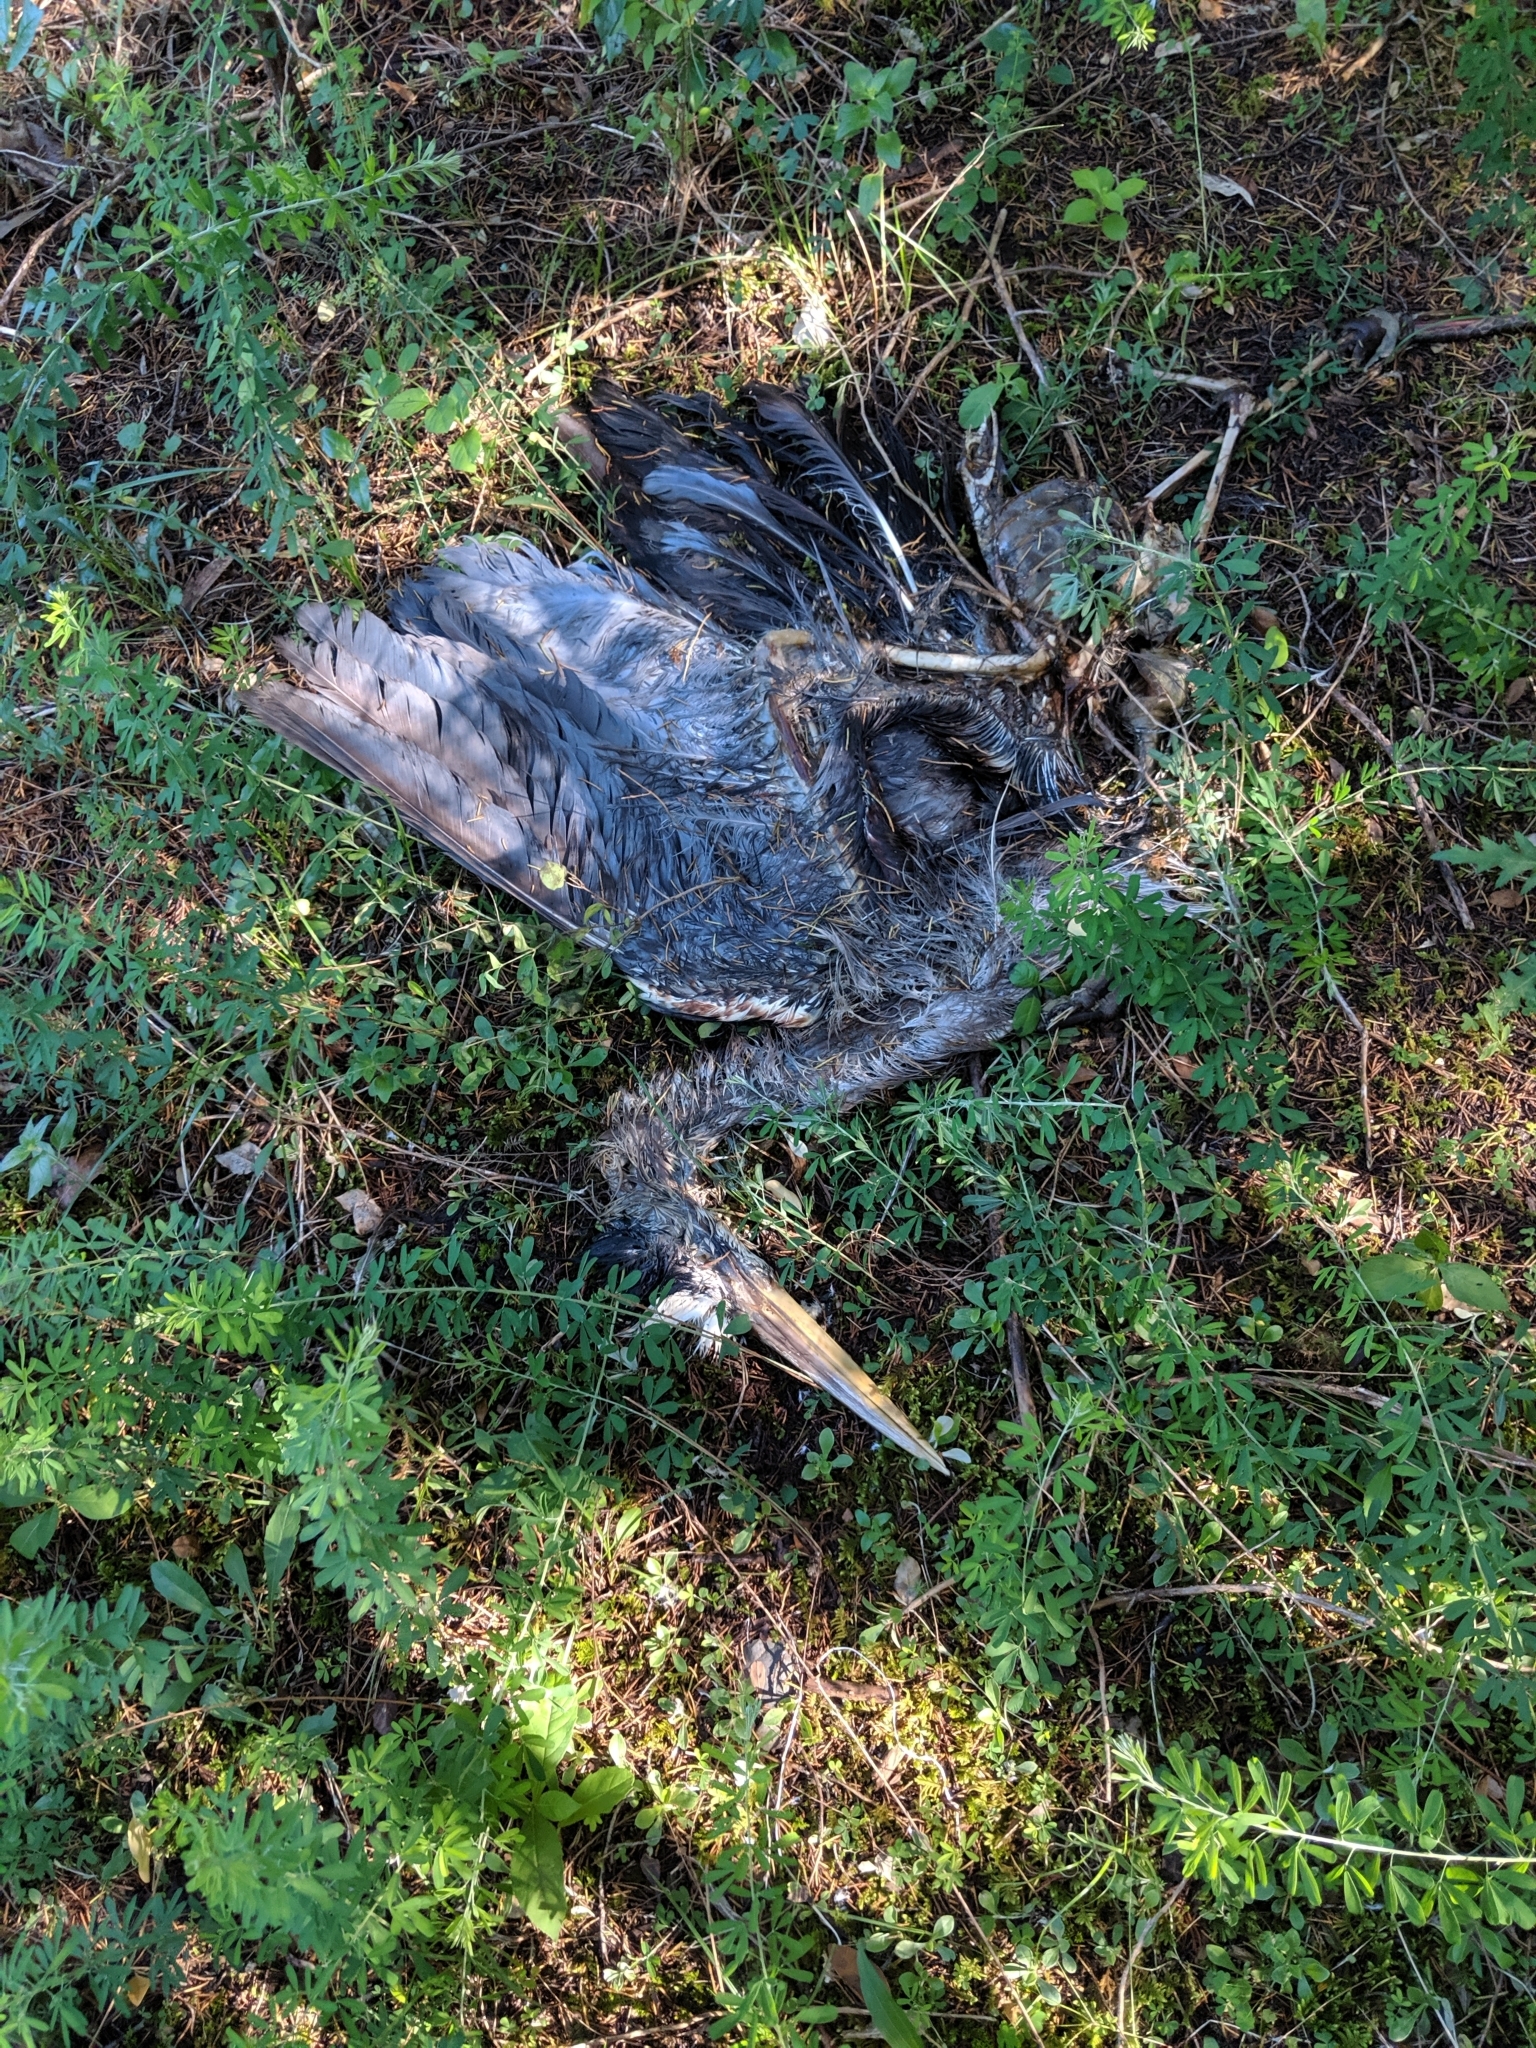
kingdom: Animalia
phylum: Chordata
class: Aves
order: Pelecaniformes
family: Ardeidae
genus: Ardea
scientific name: Ardea herodias
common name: Great blue heron
